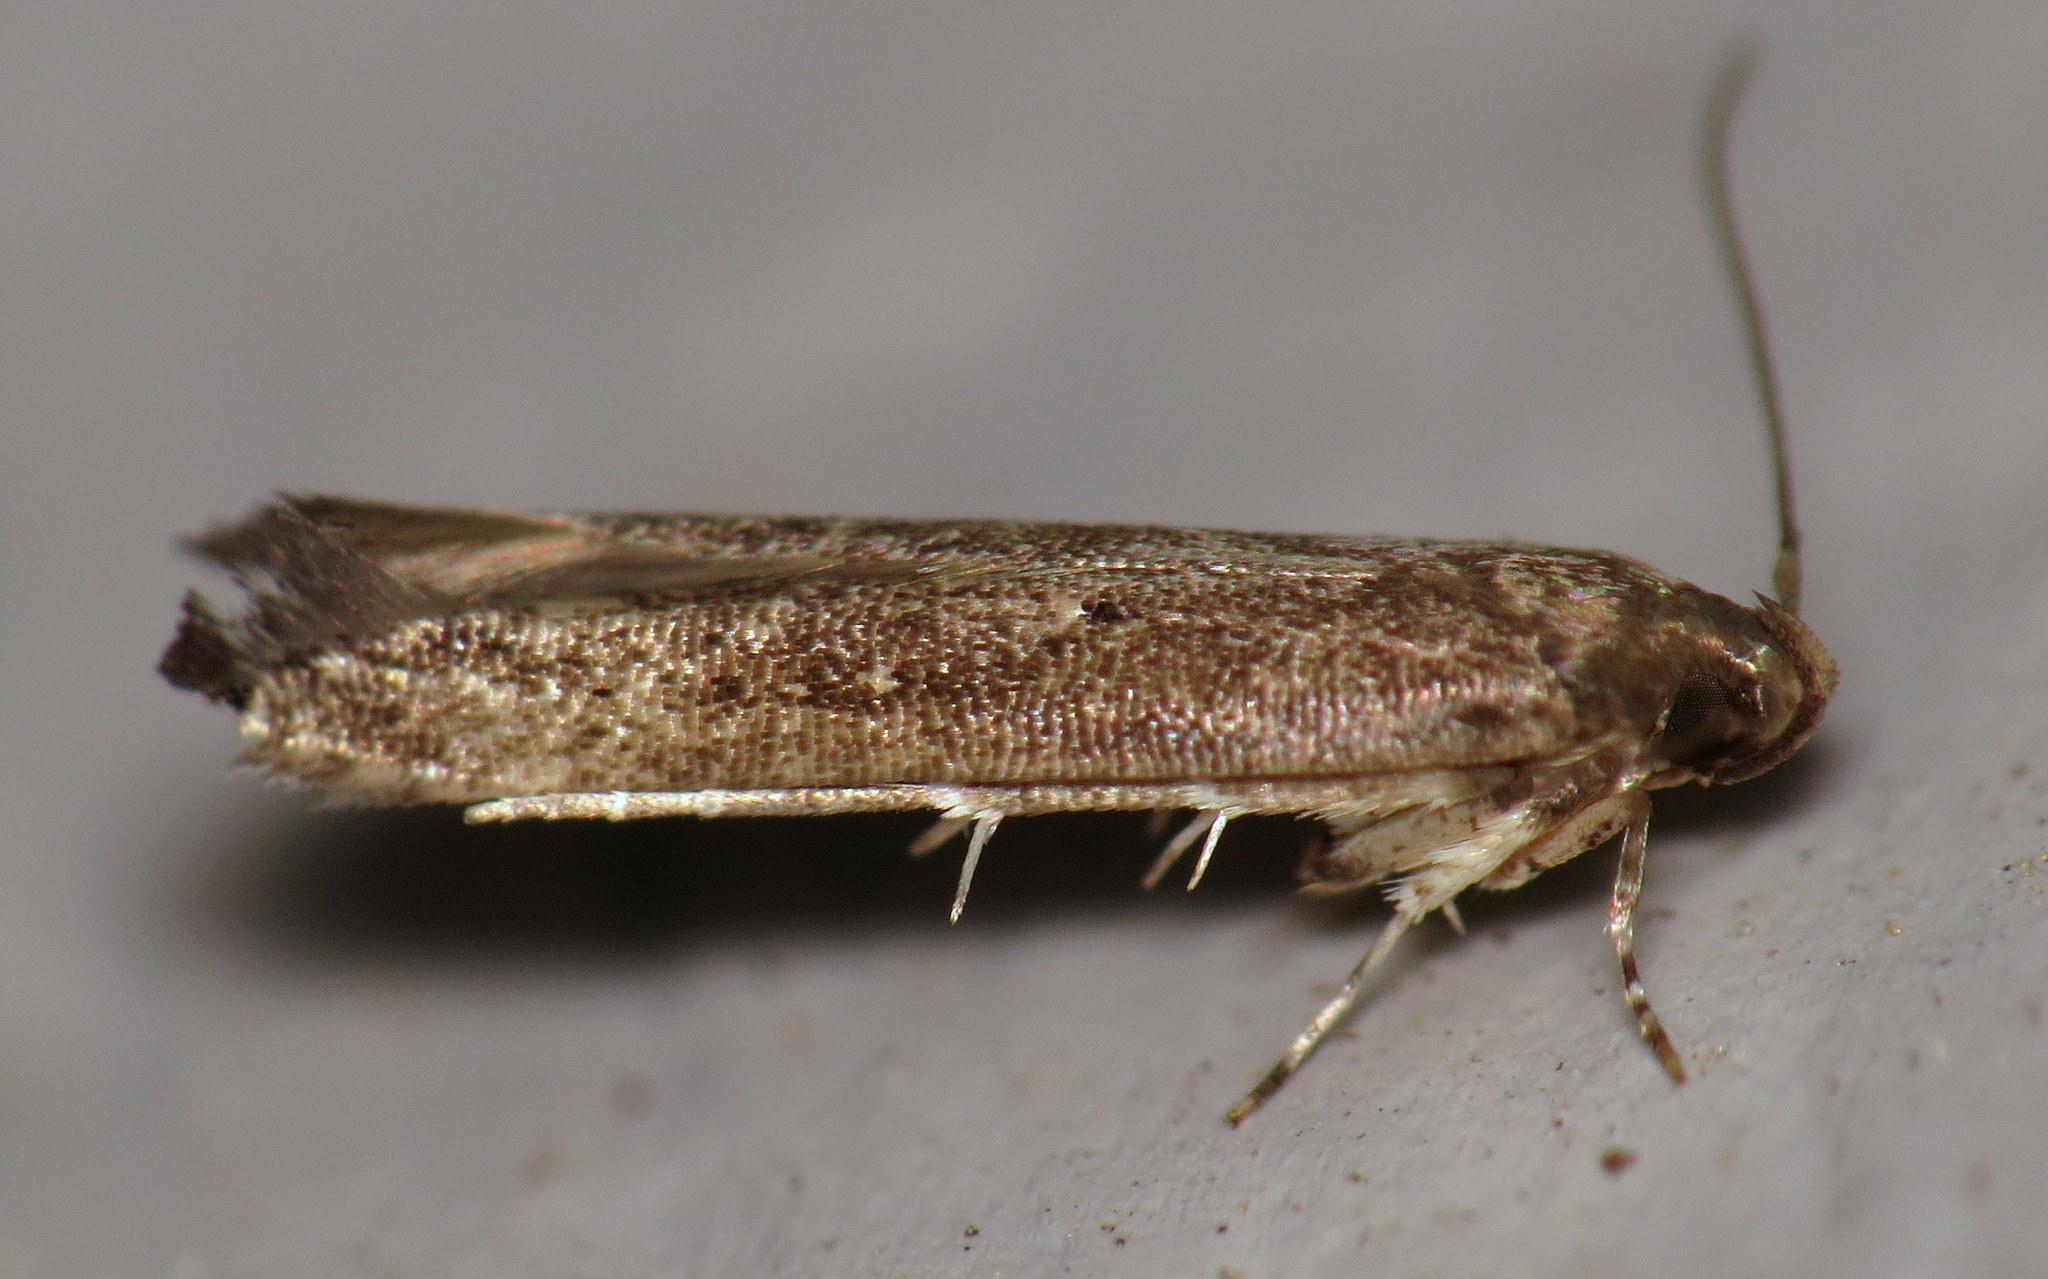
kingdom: Animalia
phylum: Arthropoda
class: Insecta
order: Lepidoptera
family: Cosmopterigidae
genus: Ithome
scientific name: Ithome erransella
